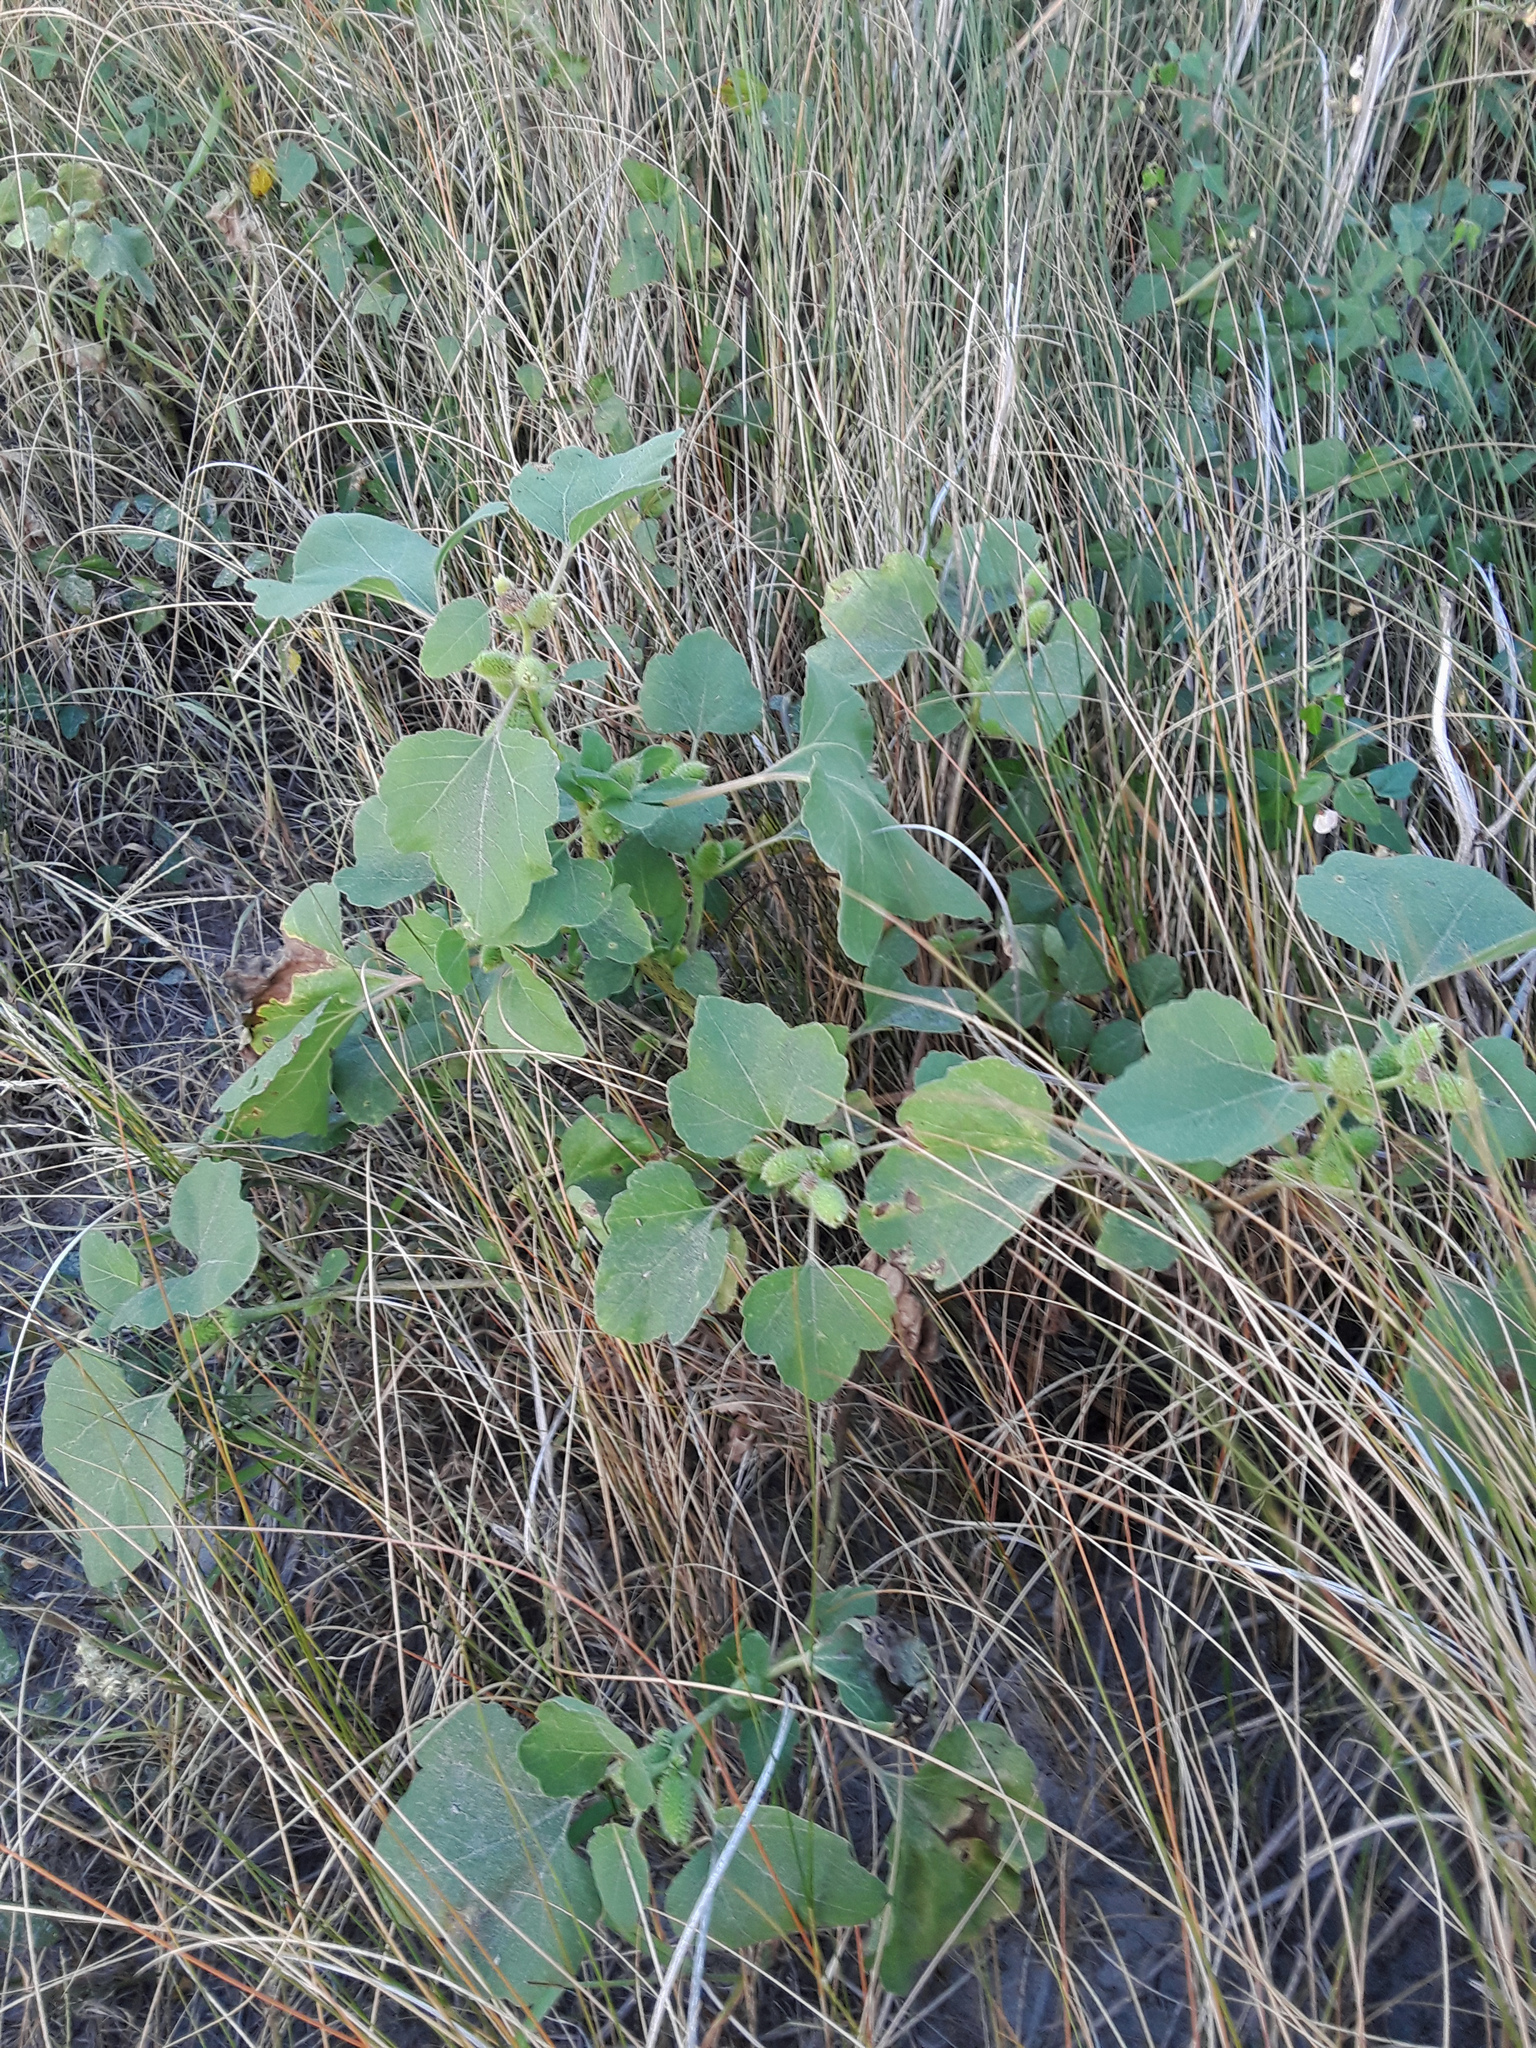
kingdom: Plantae
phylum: Tracheophyta
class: Magnoliopsida
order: Asterales
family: Asteraceae
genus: Xanthium
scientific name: Xanthium strumarium
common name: Rough cocklebur
